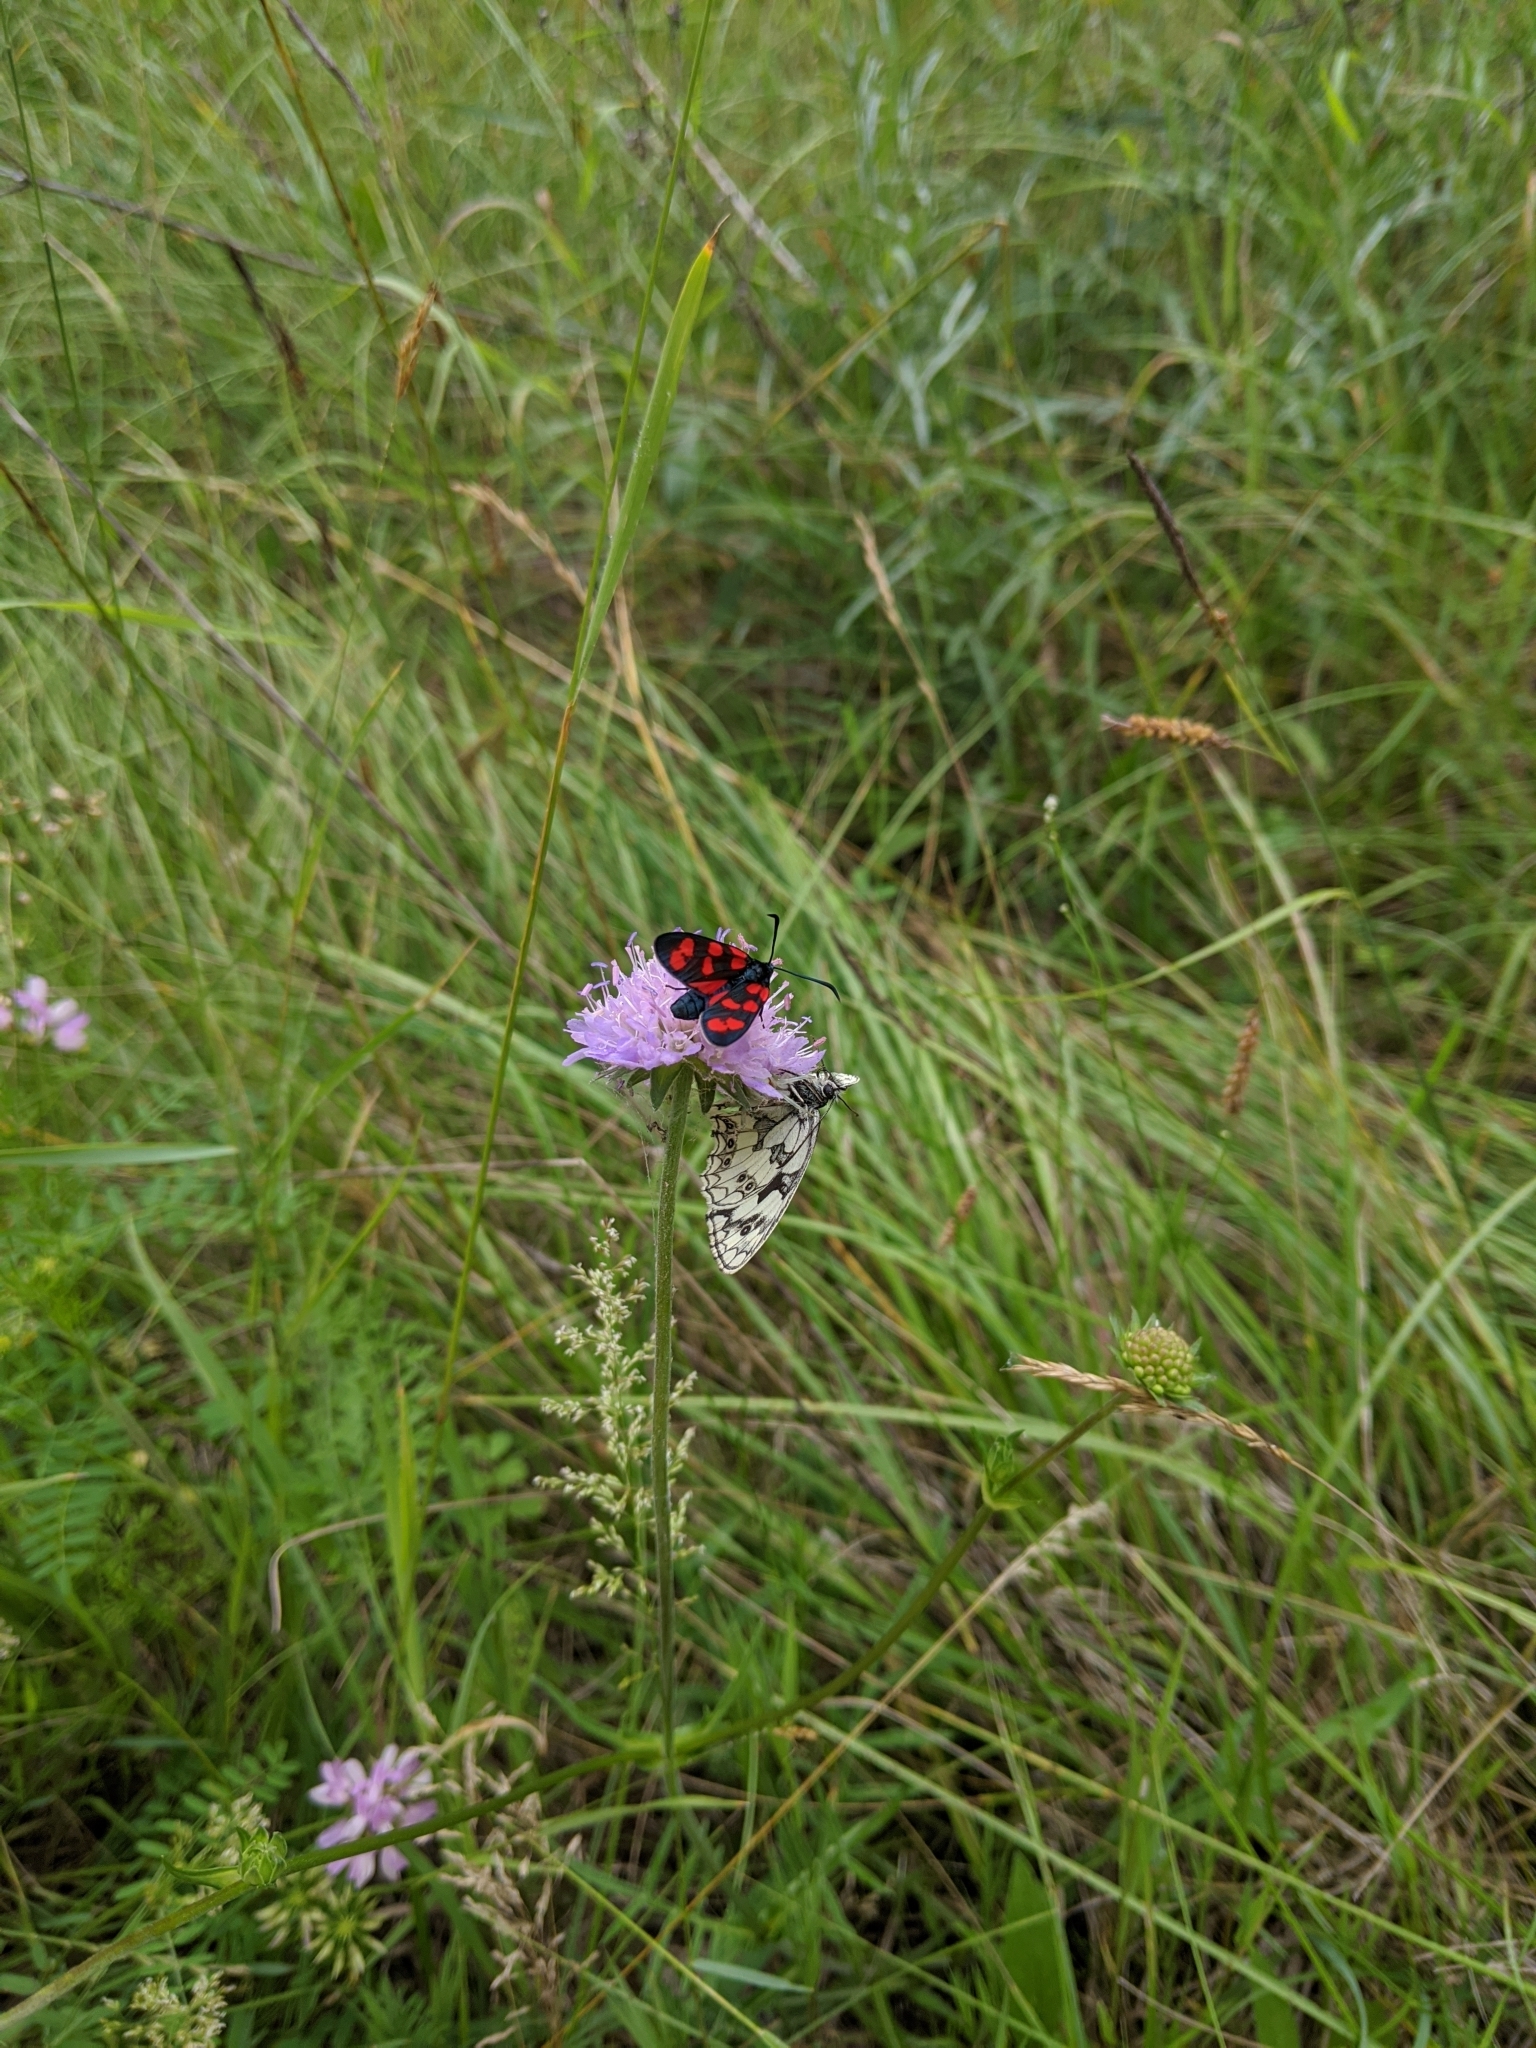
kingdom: Animalia
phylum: Arthropoda
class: Insecta
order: Lepidoptera
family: Zygaenidae
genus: Zygaena
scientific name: Zygaena filipendulae
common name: Six-spot burnet
